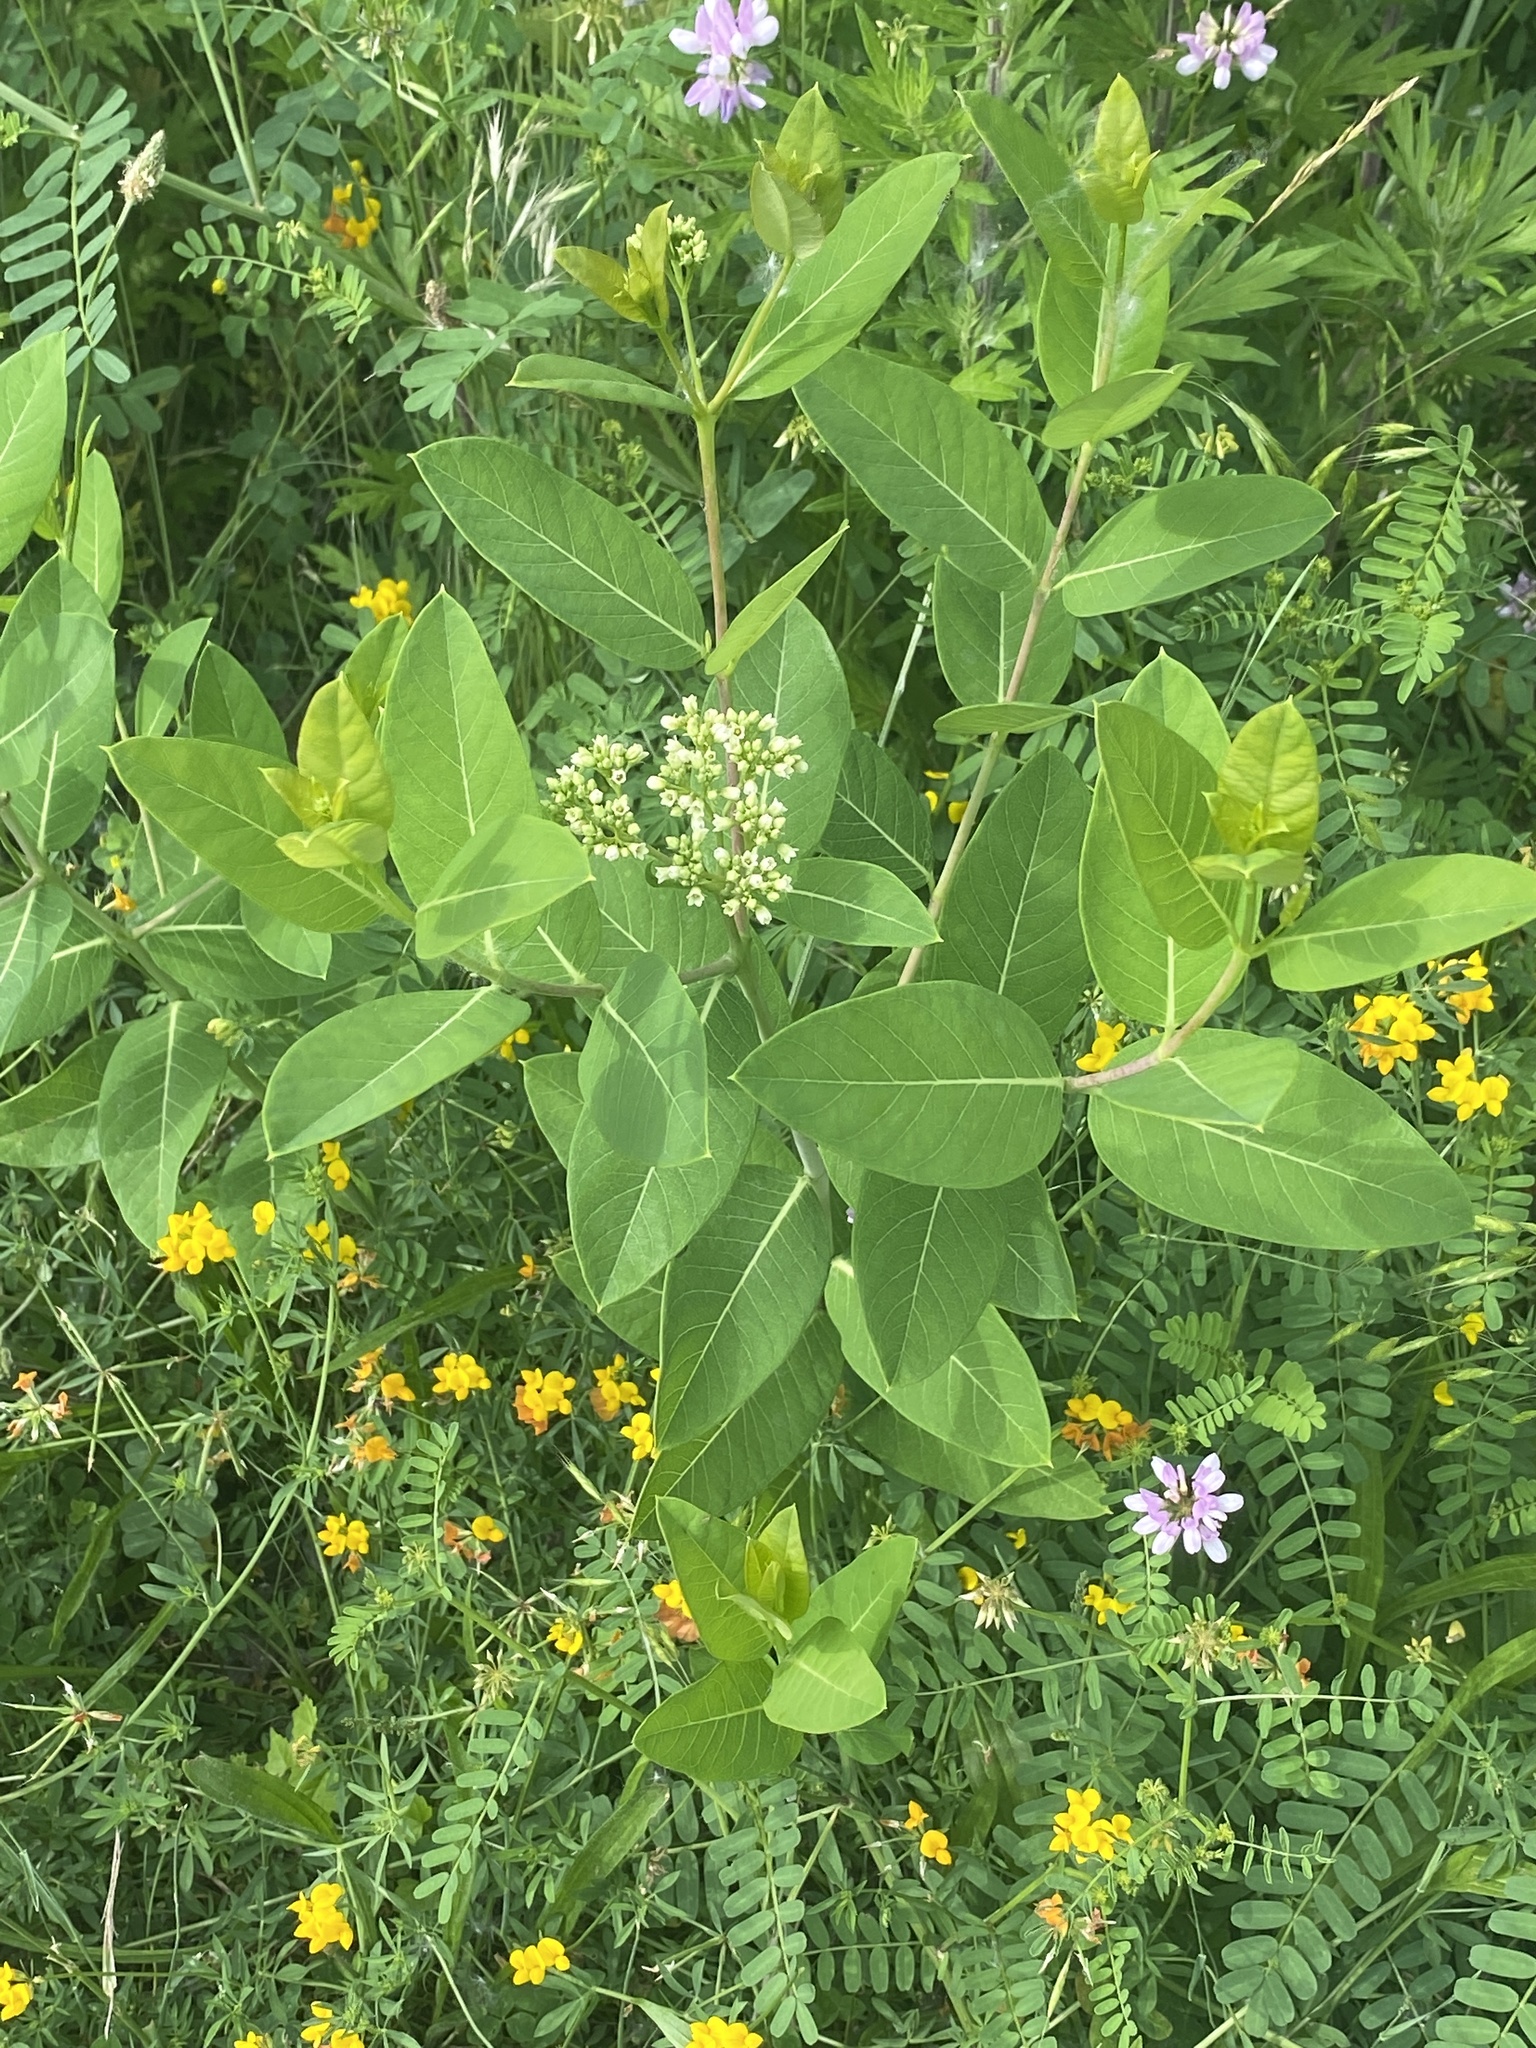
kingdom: Plantae
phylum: Tracheophyta
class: Magnoliopsida
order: Gentianales
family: Apocynaceae
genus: Apocynum
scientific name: Apocynum cannabinum
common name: Hemp dogbane
